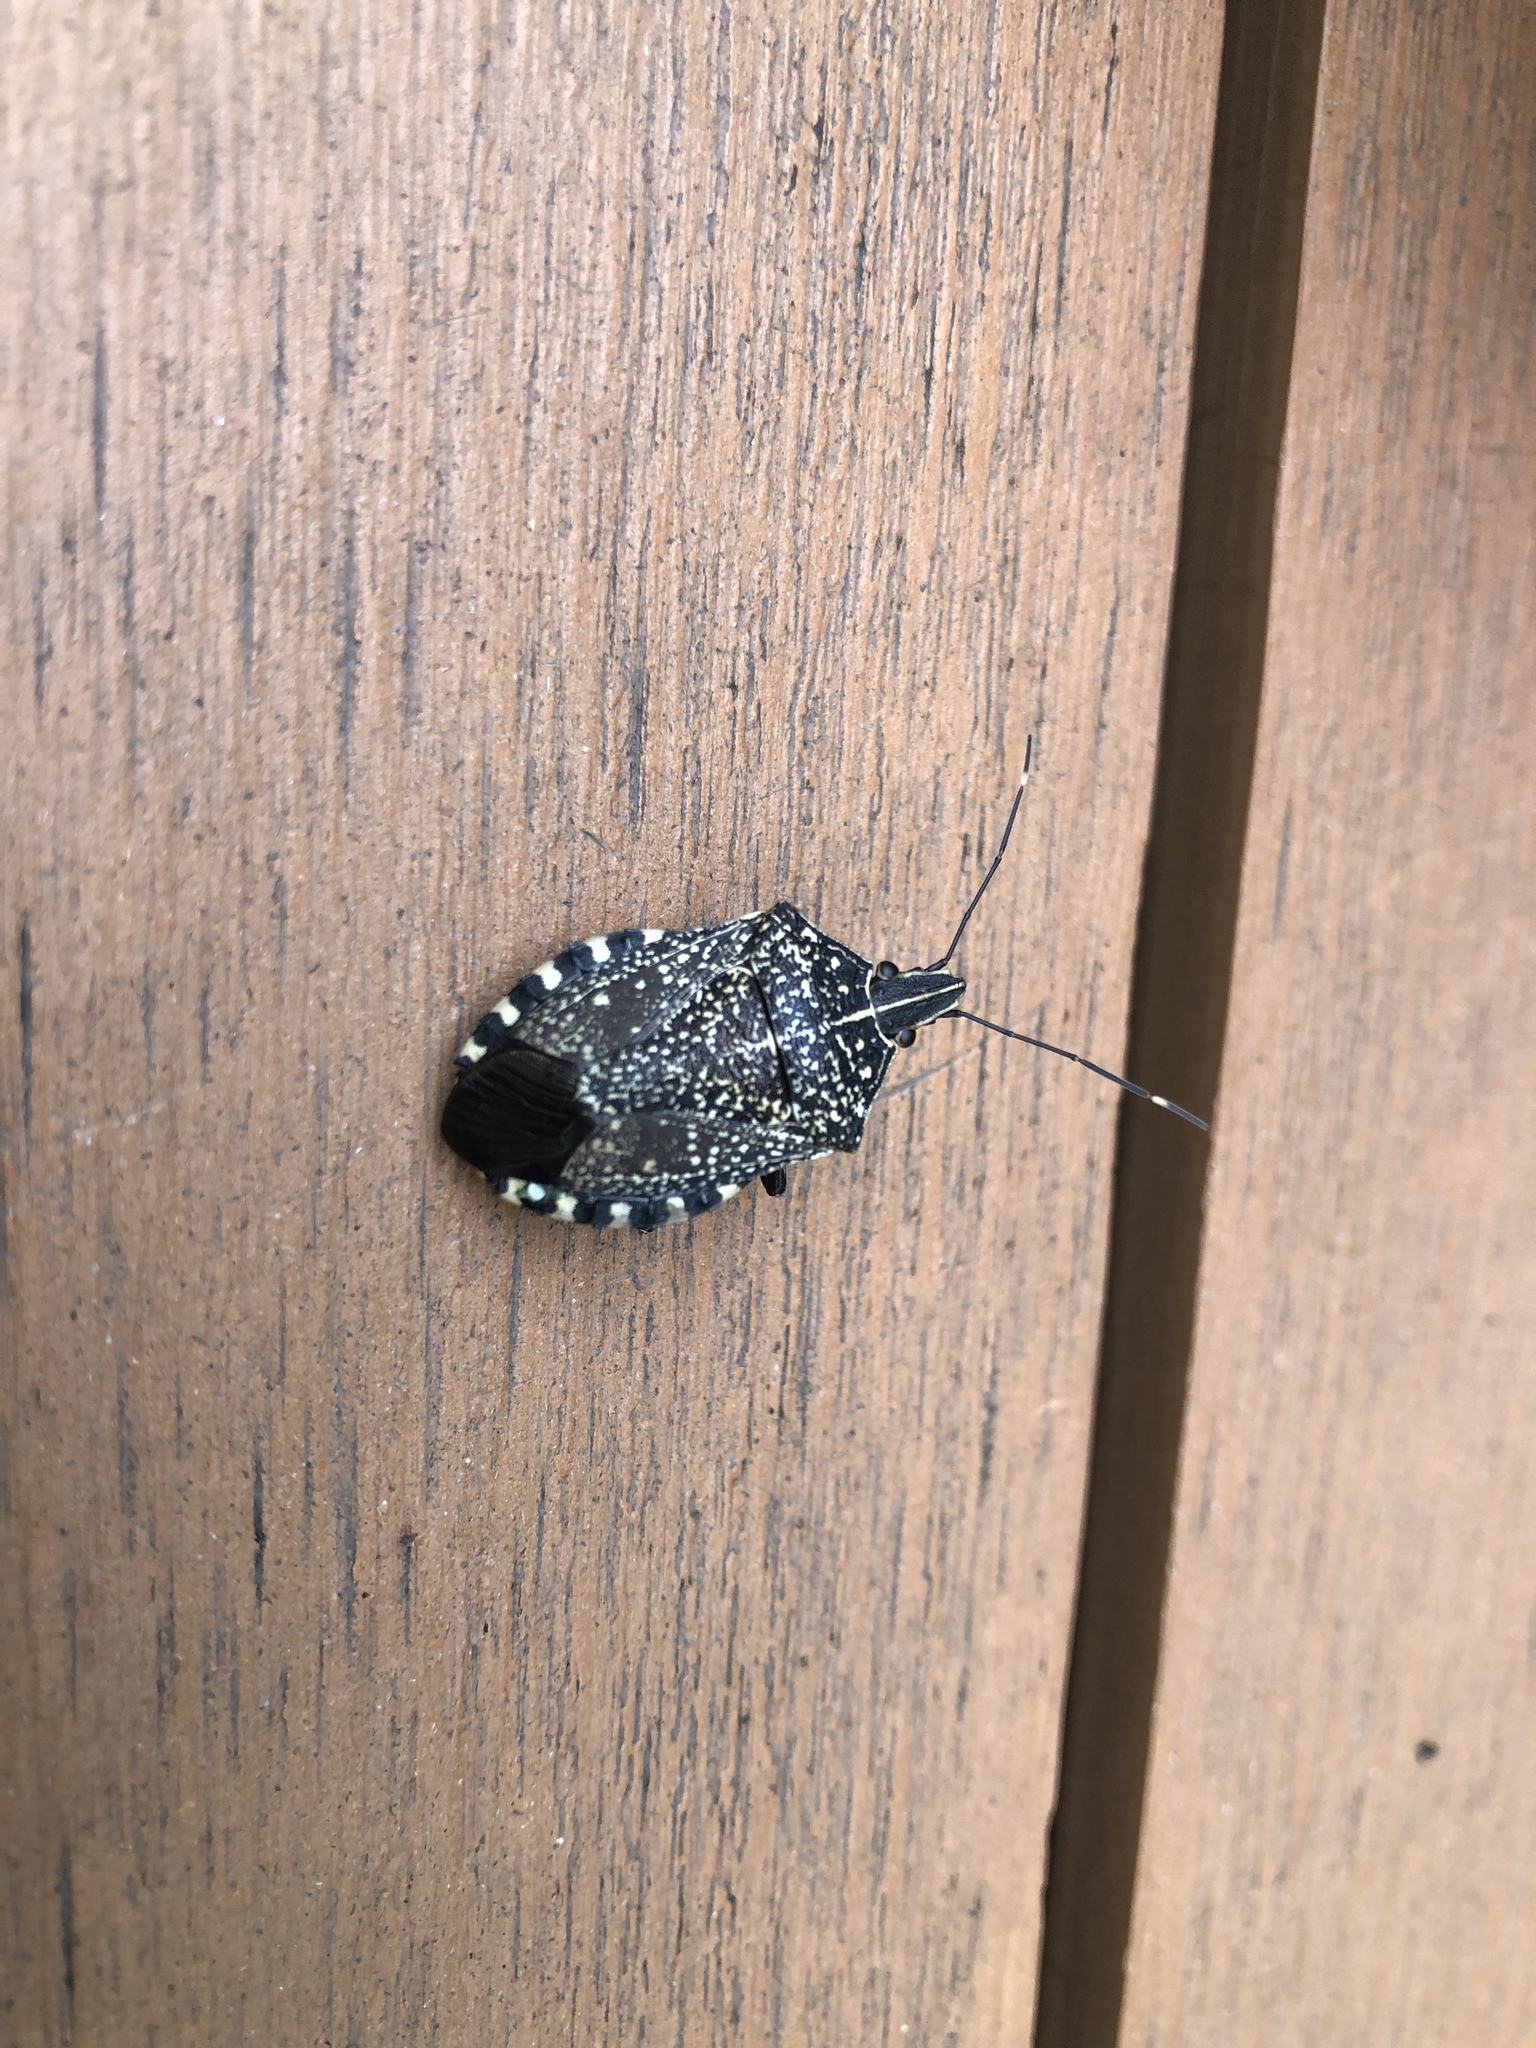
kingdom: Animalia
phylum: Arthropoda
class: Insecta
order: Hemiptera
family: Pentatomidae
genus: Erthesina
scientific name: Erthesina fullo
